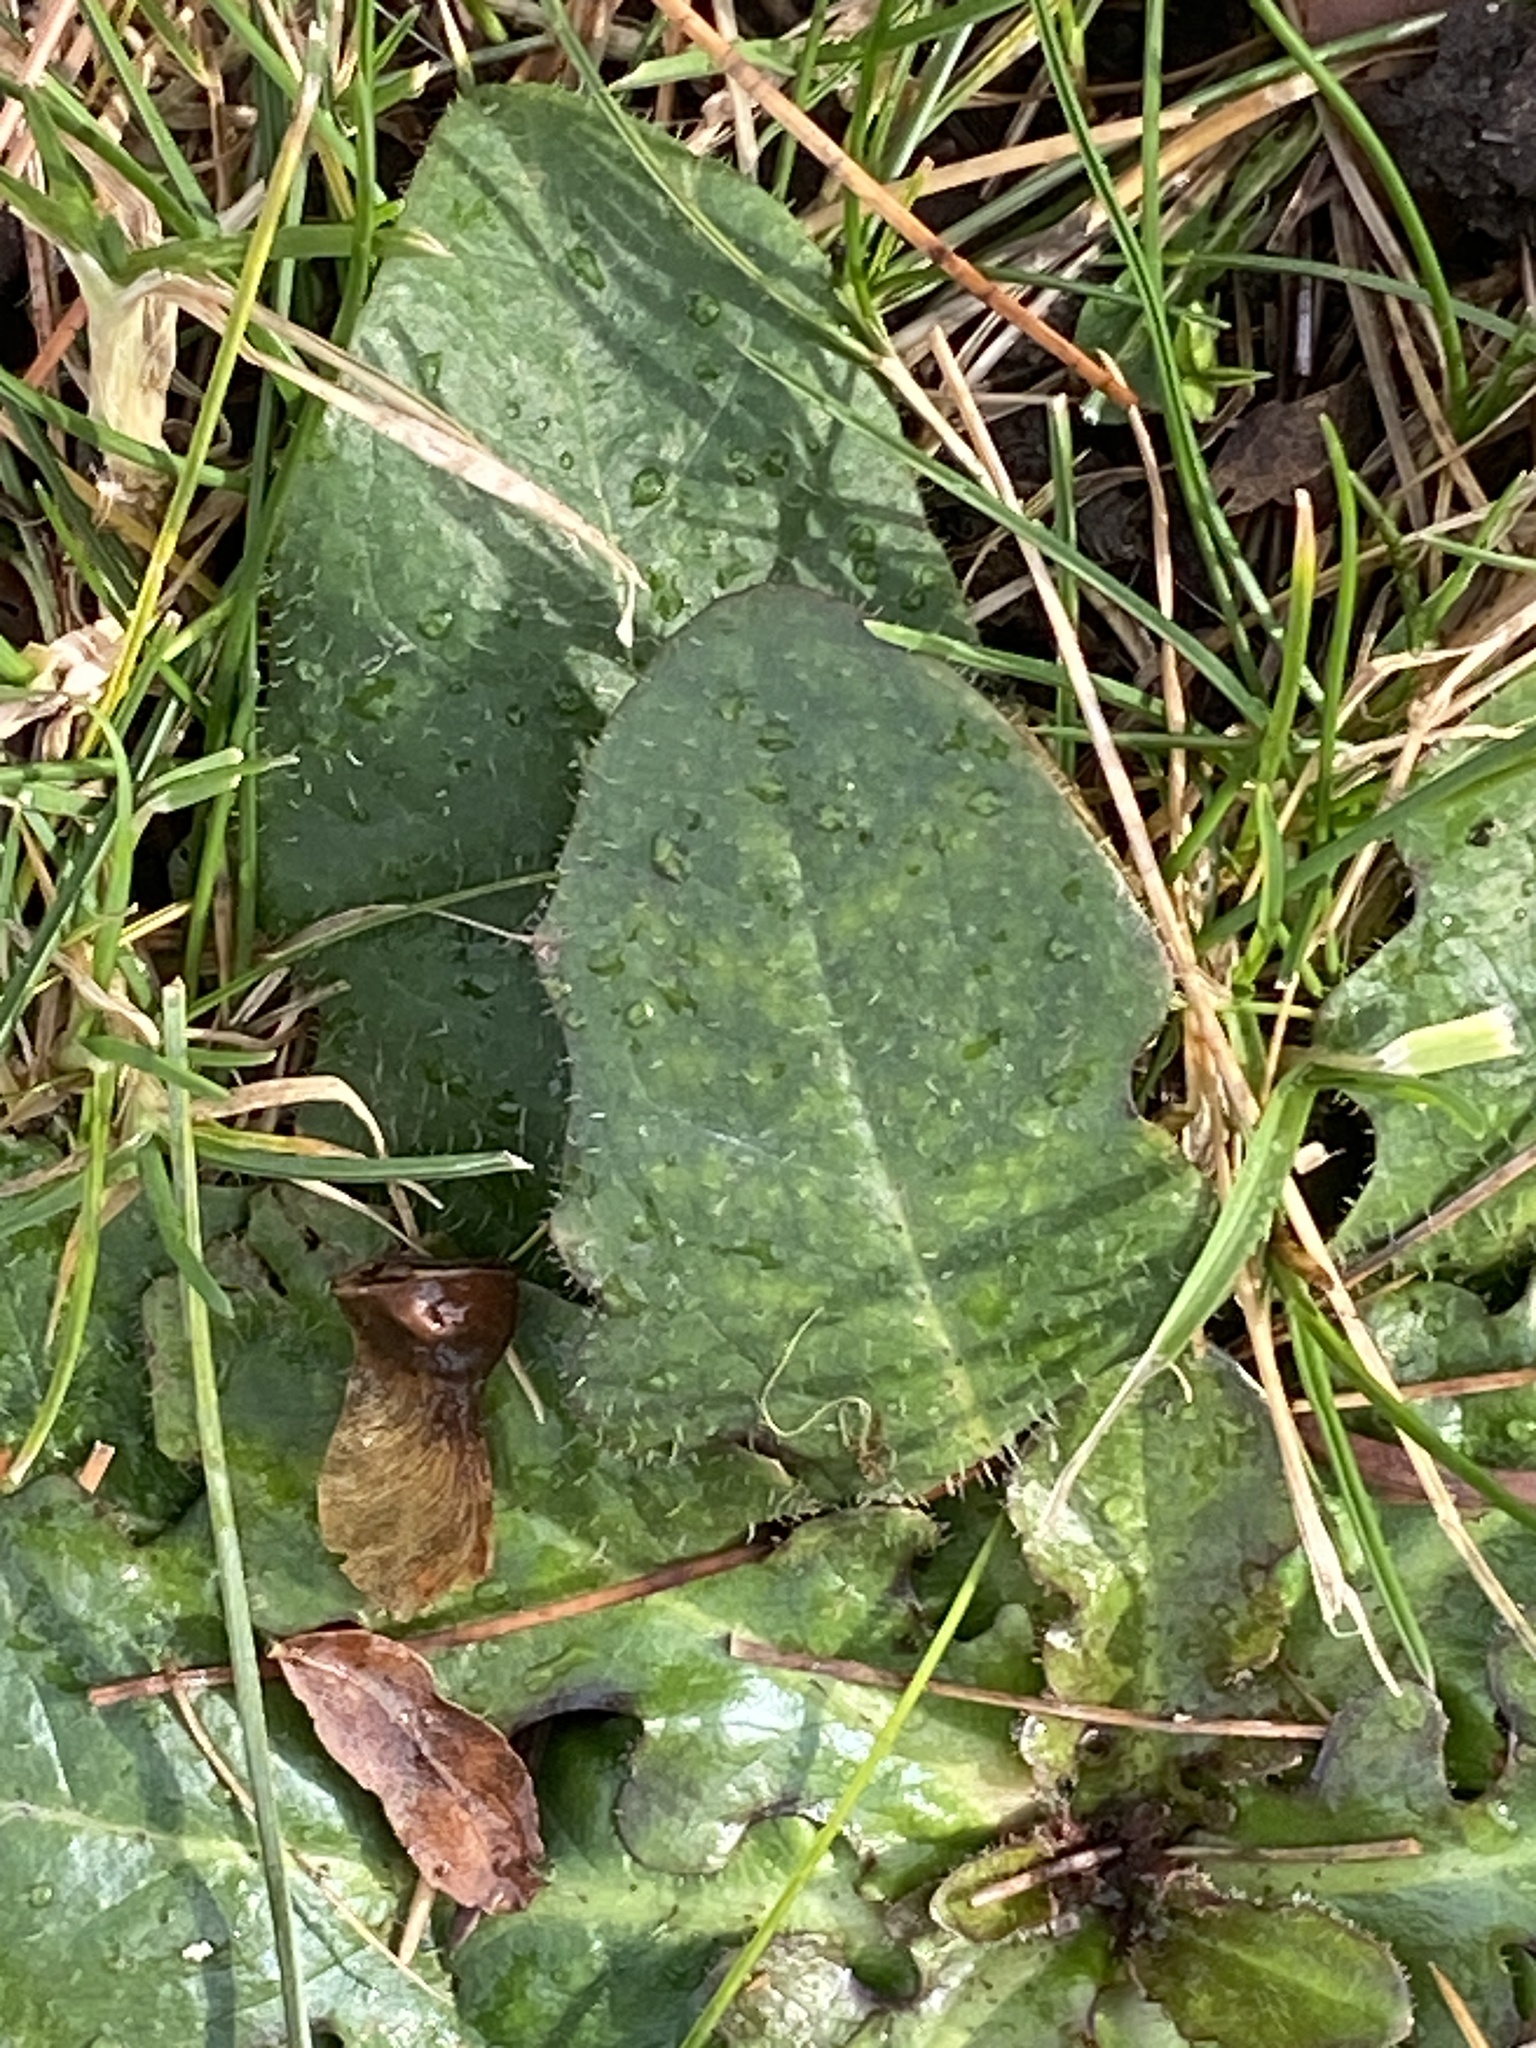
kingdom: Plantae
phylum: Tracheophyta
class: Magnoliopsida
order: Asterales
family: Asteraceae
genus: Hypochaeris
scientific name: Hypochaeris radicata
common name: Flatweed
